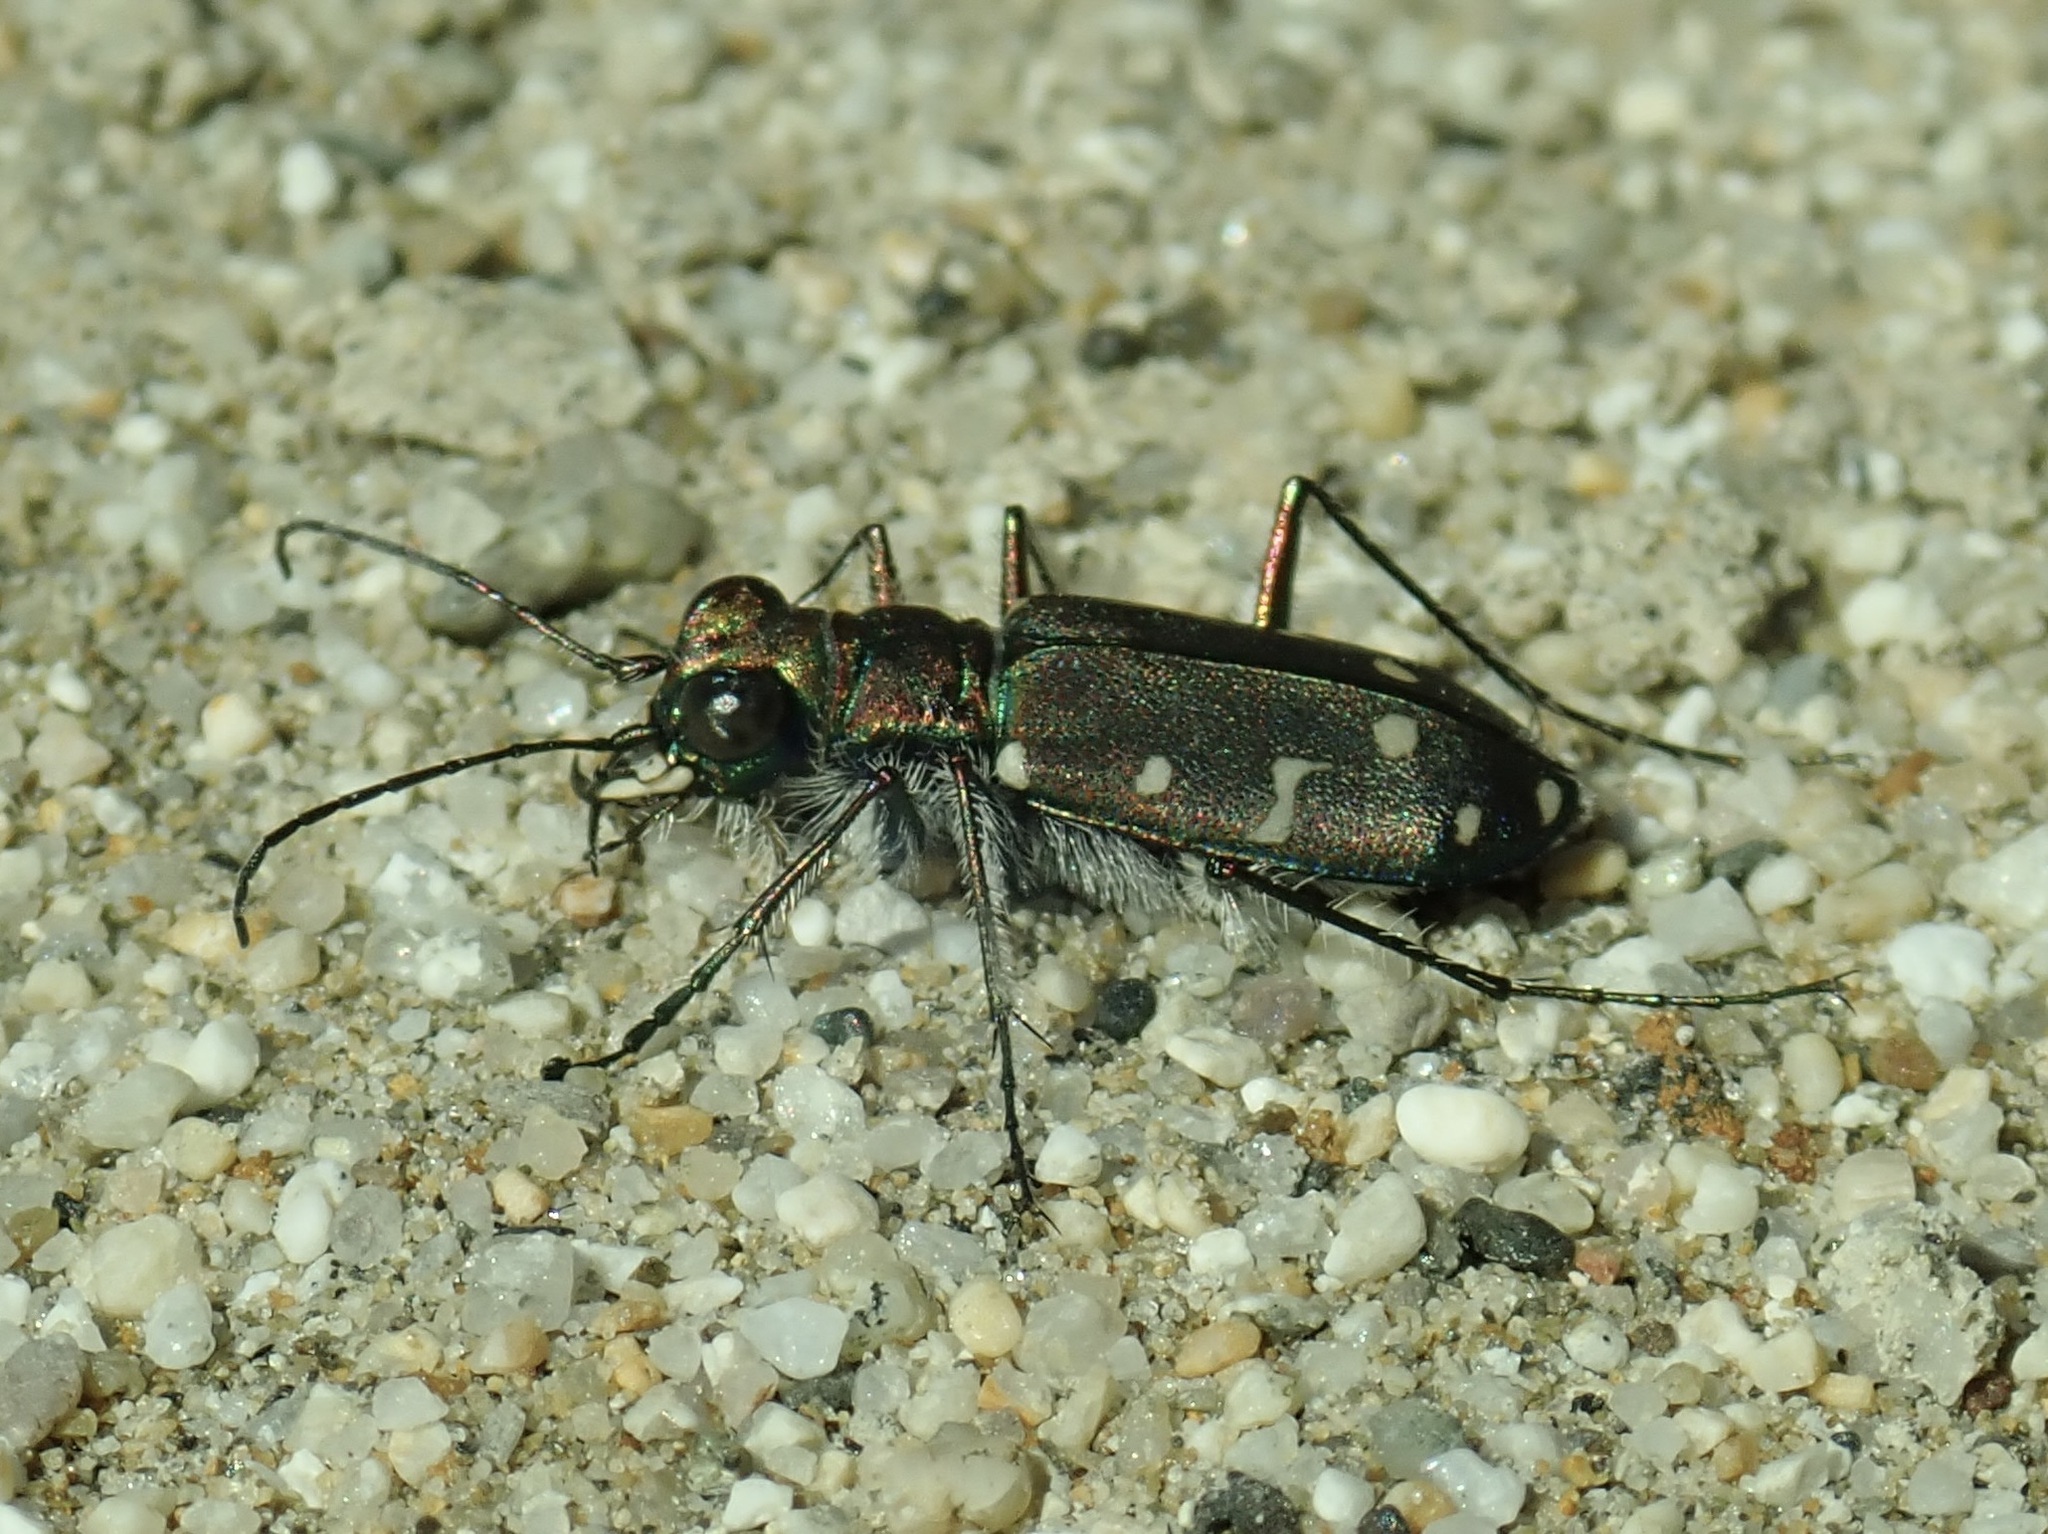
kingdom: Animalia
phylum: Arthropoda
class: Insecta
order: Coleoptera
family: Carabidae
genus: Cicindela
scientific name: Cicindela oregona
